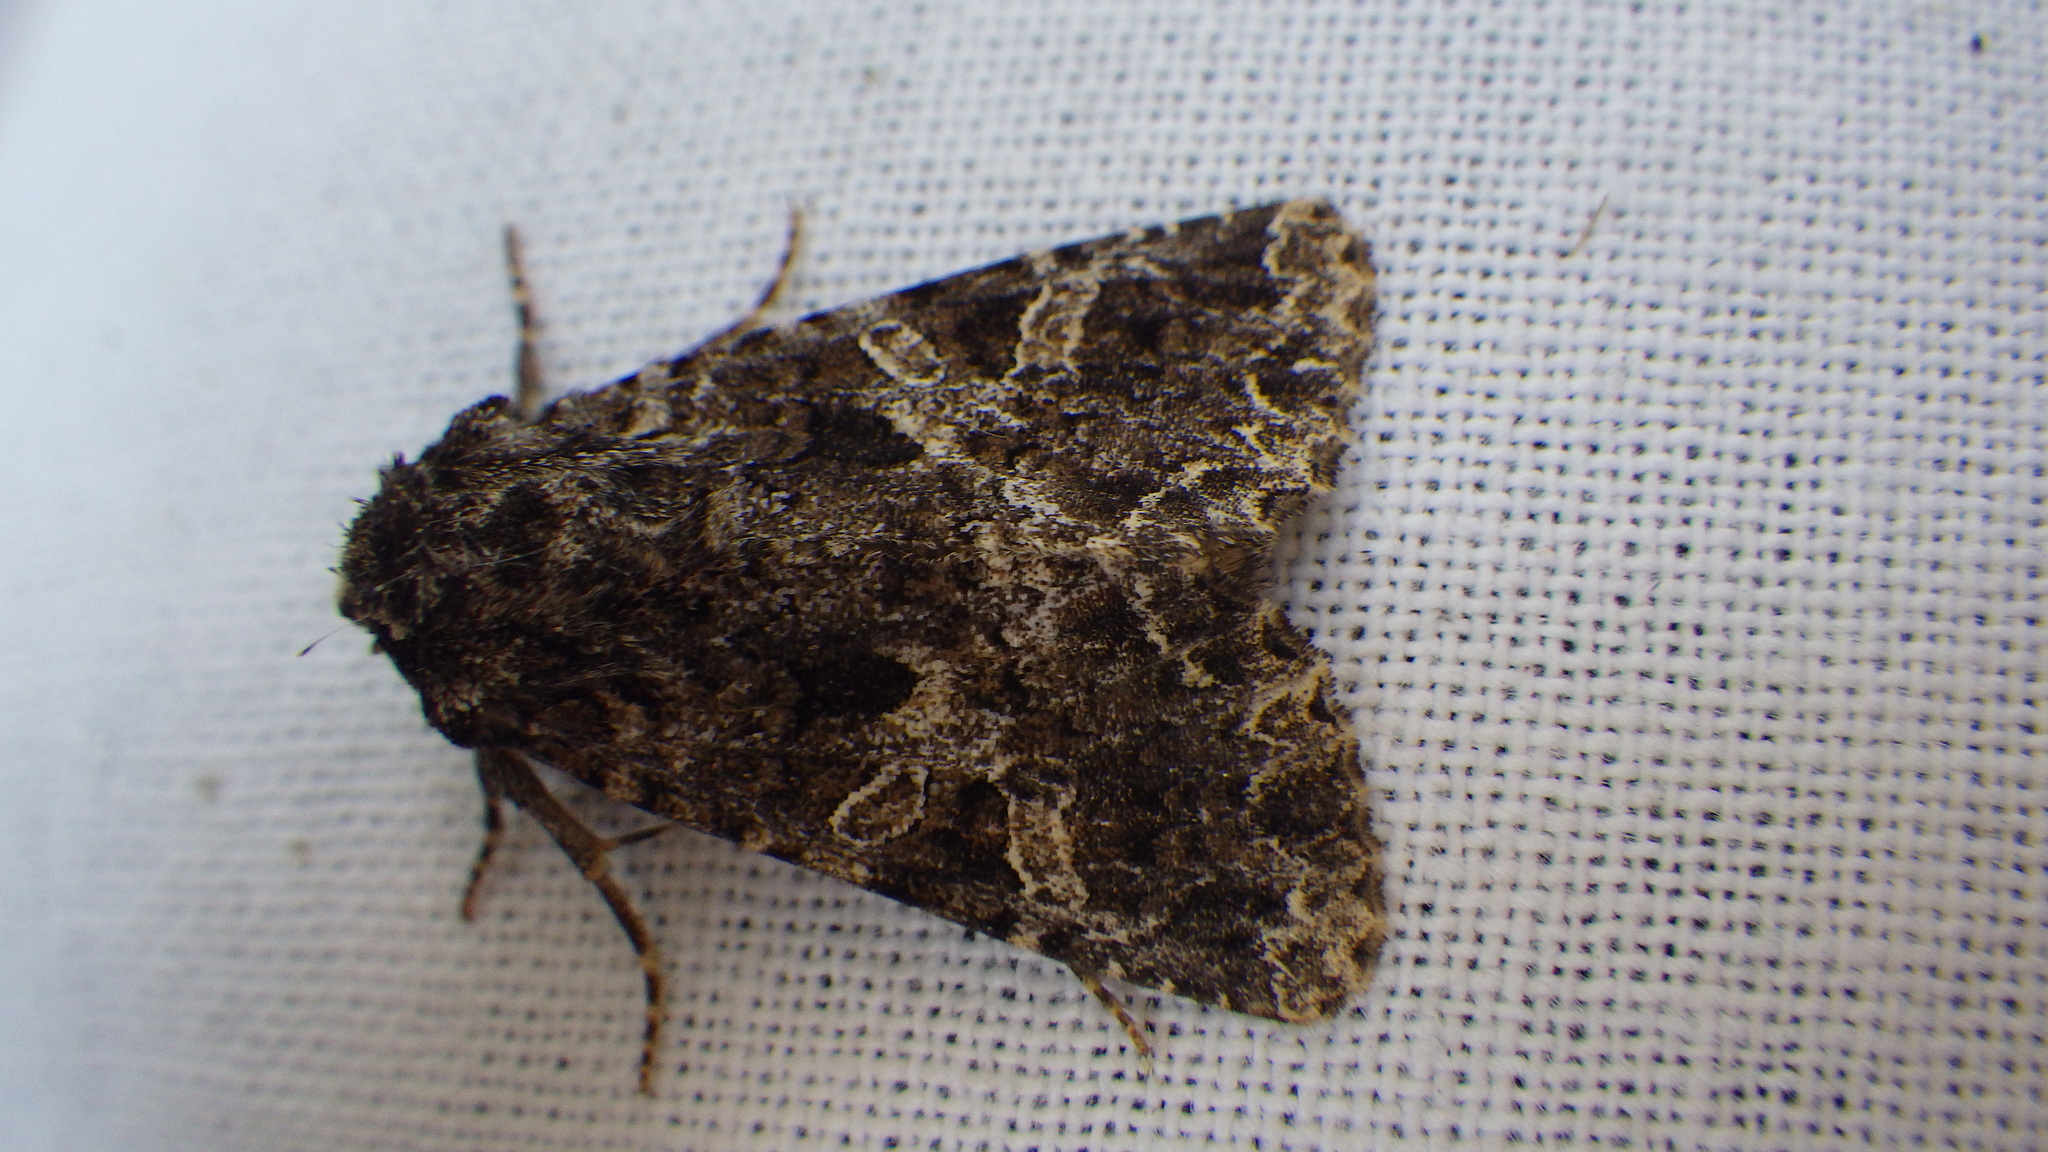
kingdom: Animalia
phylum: Arthropoda
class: Insecta
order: Lepidoptera
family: Noctuidae
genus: Hadena
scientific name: Hadena bicruris
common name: Lychnis
